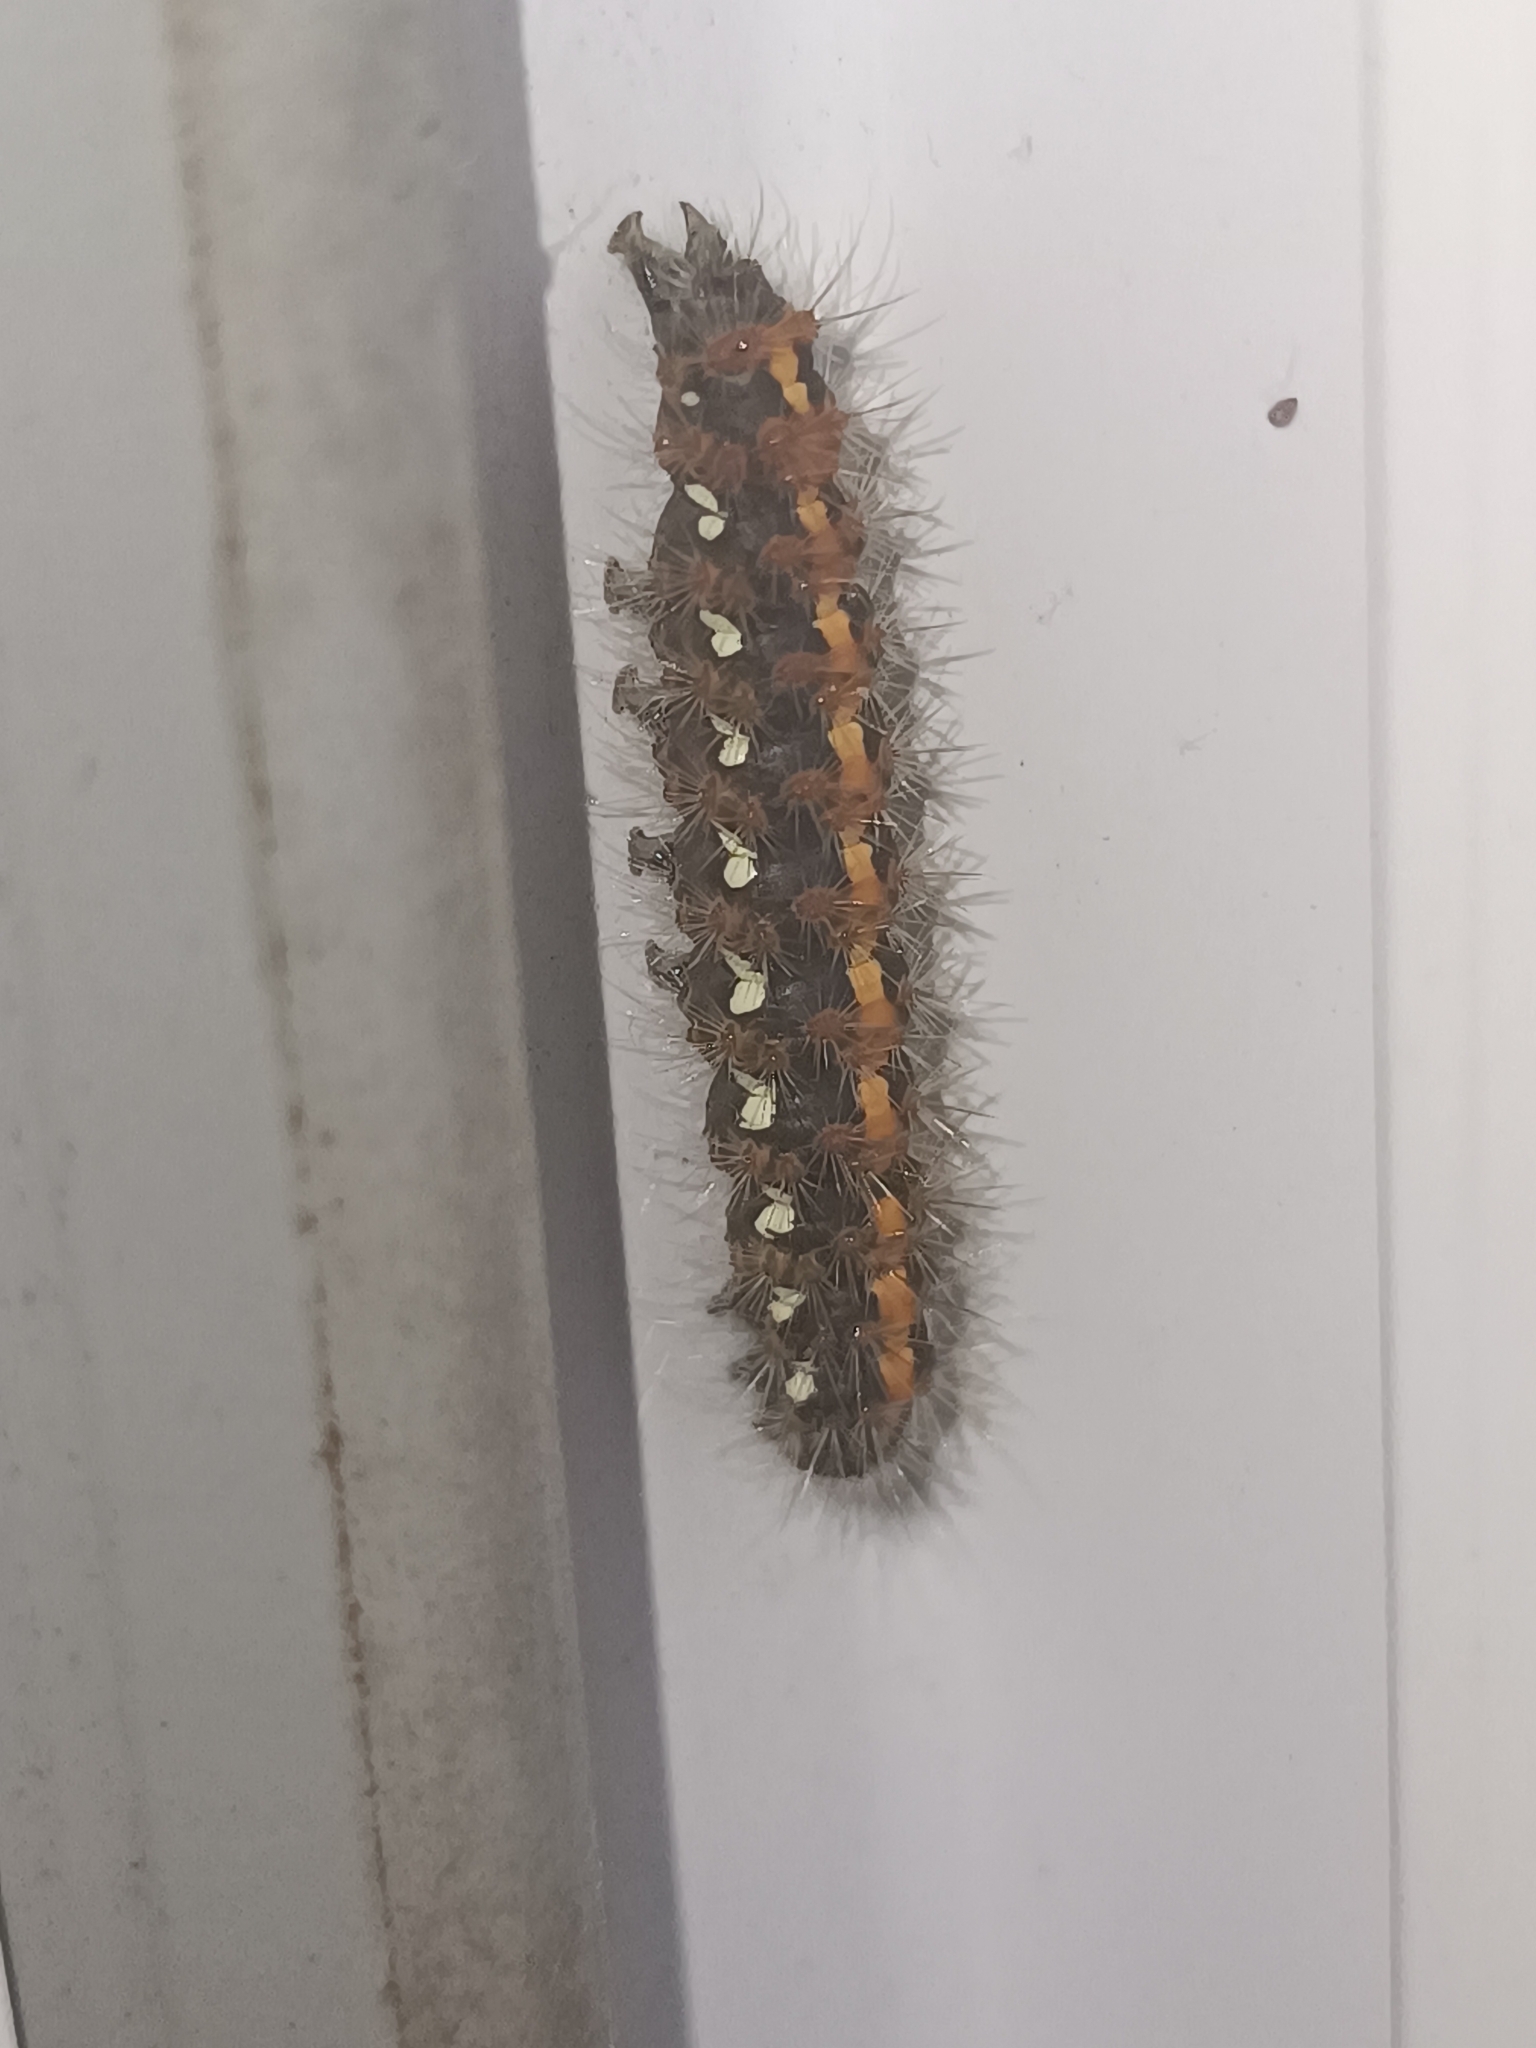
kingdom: Animalia
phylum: Arthropoda
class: Insecta
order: Lepidoptera
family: Erebidae
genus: Euplagia
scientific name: Euplagia quadripunctaria
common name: Jersey tiger
